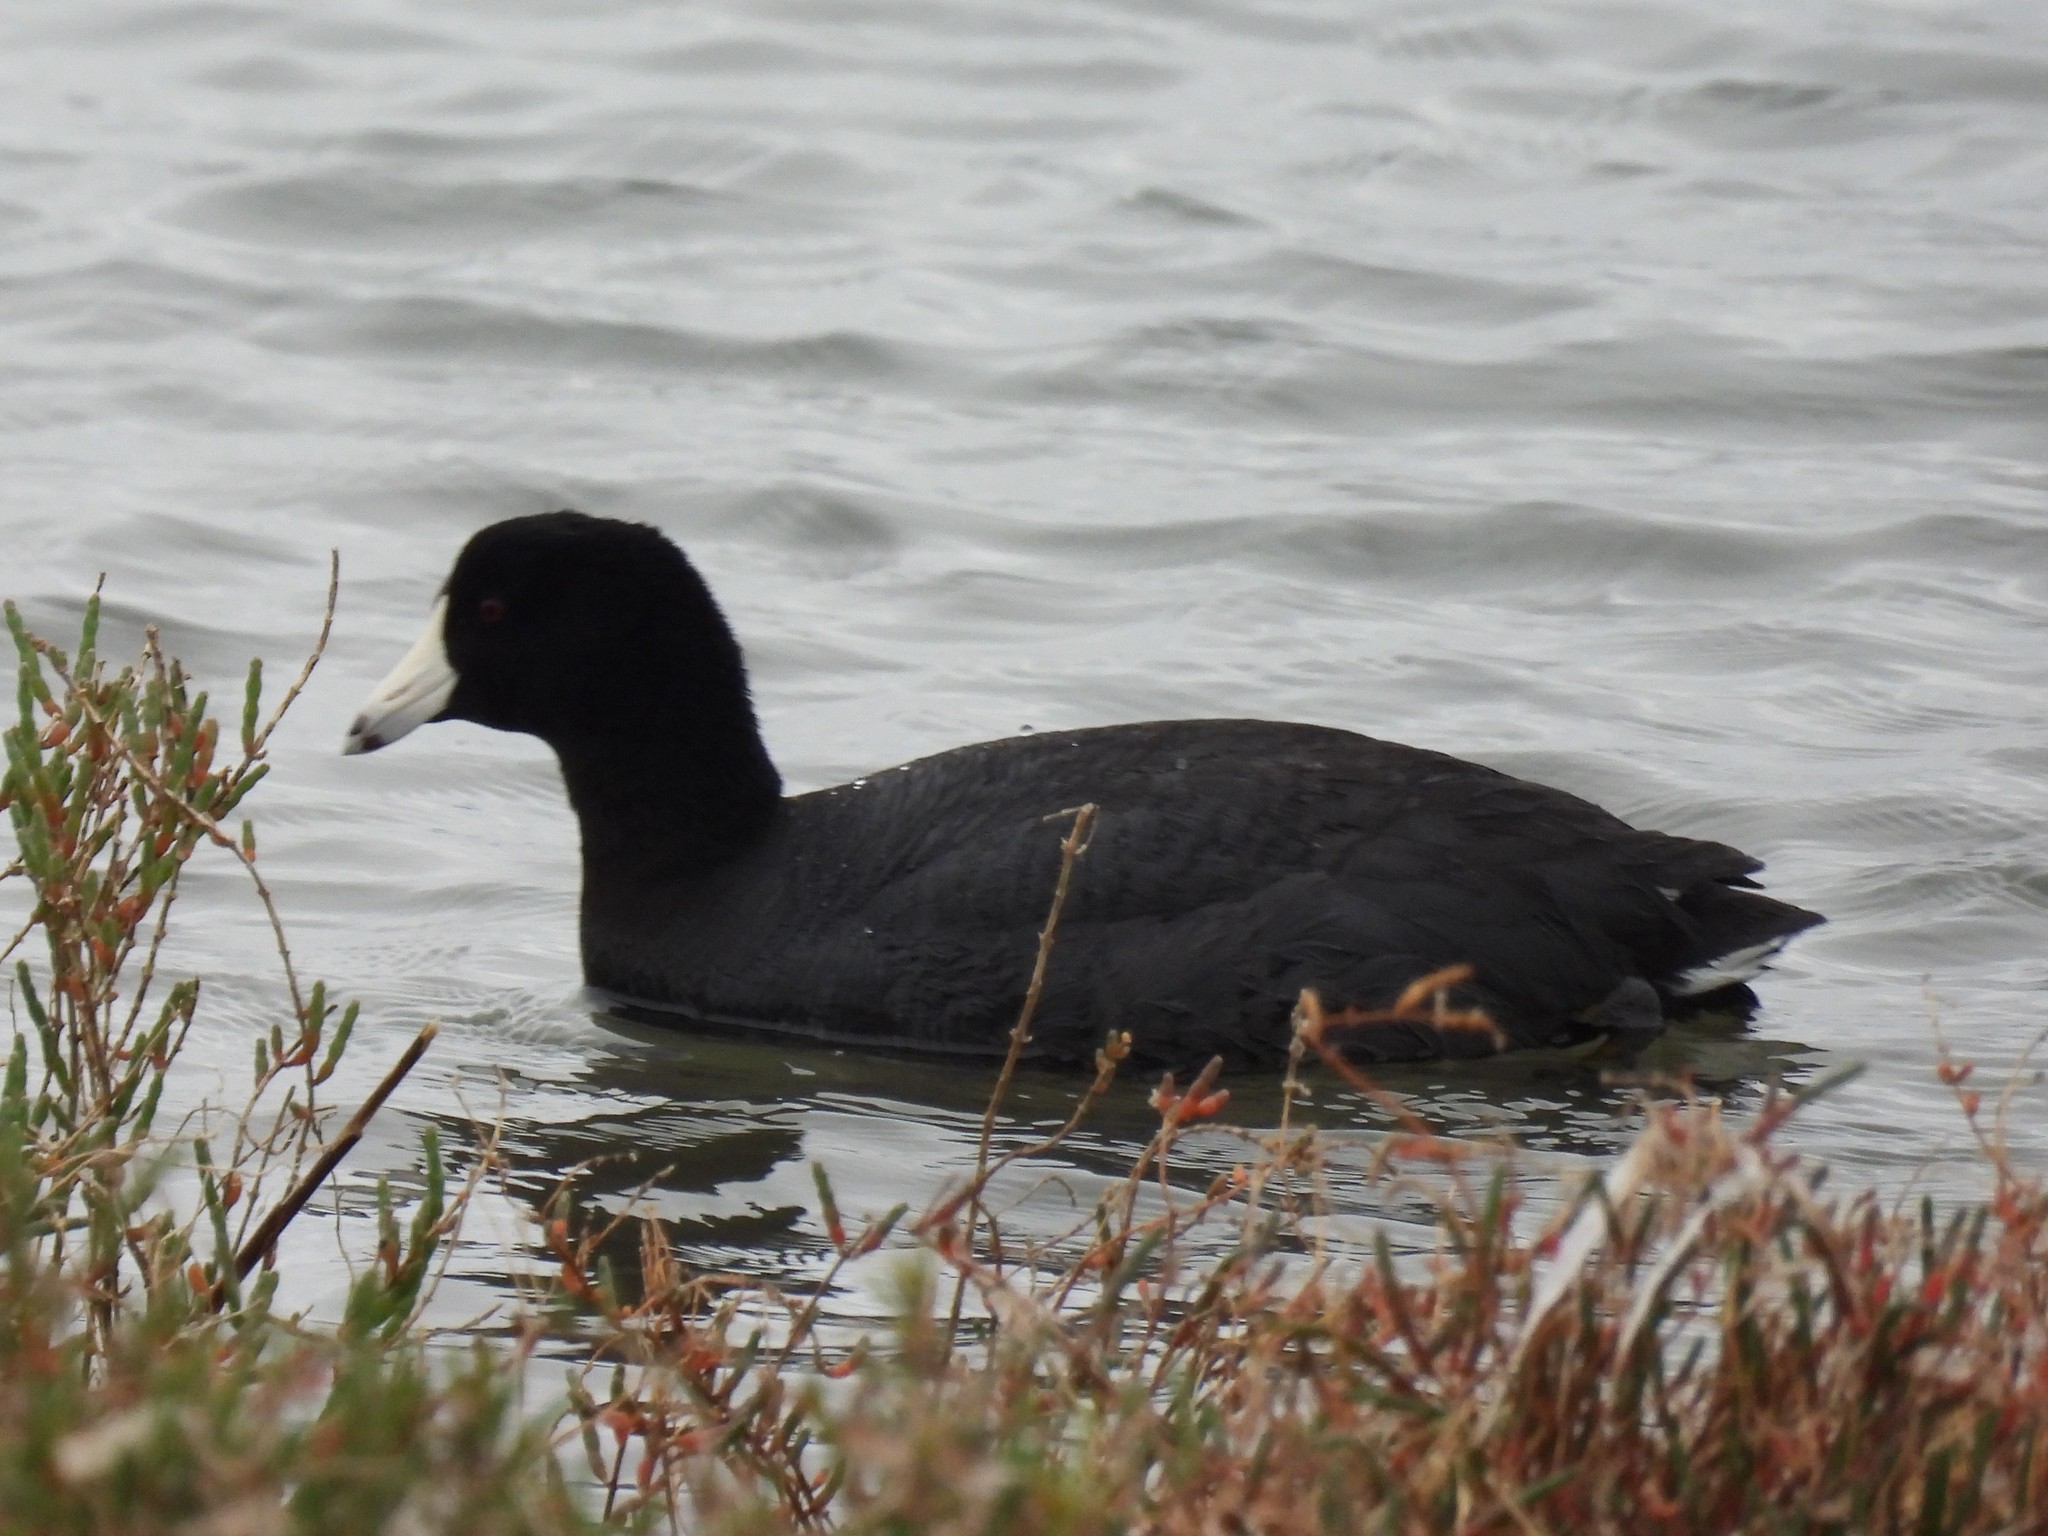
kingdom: Animalia
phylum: Chordata
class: Aves
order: Gruiformes
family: Rallidae
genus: Fulica
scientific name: Fulica americana
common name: American coot
